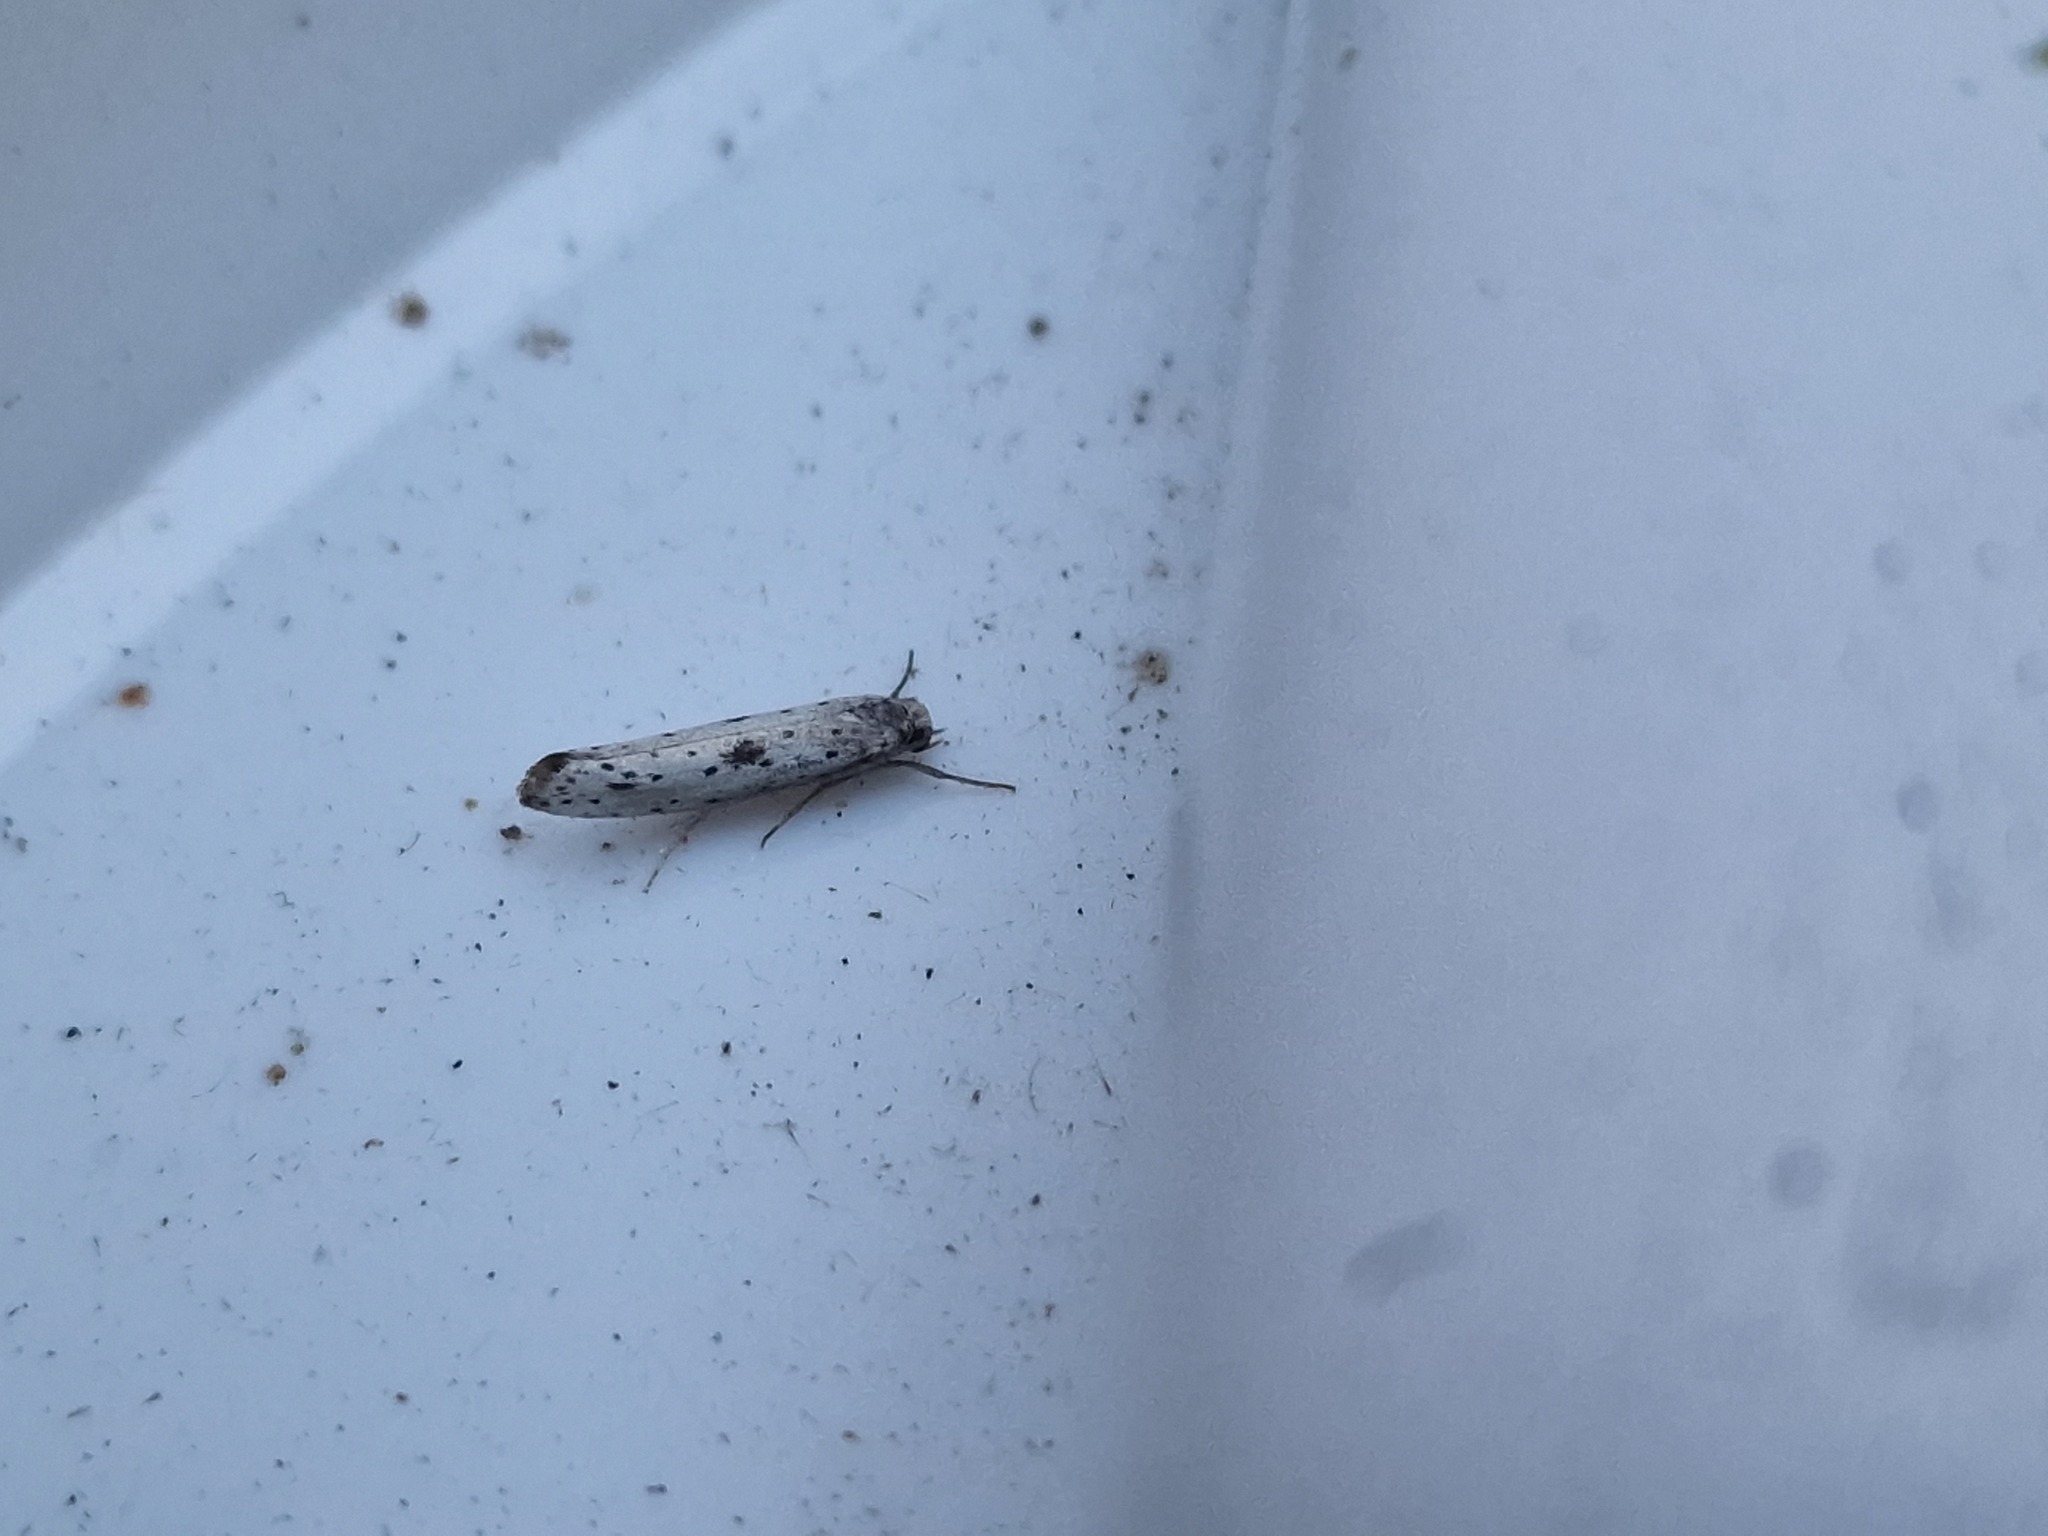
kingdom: Animalia
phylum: Arthropoda
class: Insecta
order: Lepidoptera
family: Yponomeutidae
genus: Yponomeuta
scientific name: Yponomeuta plumbella
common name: Black-tipped ermine
